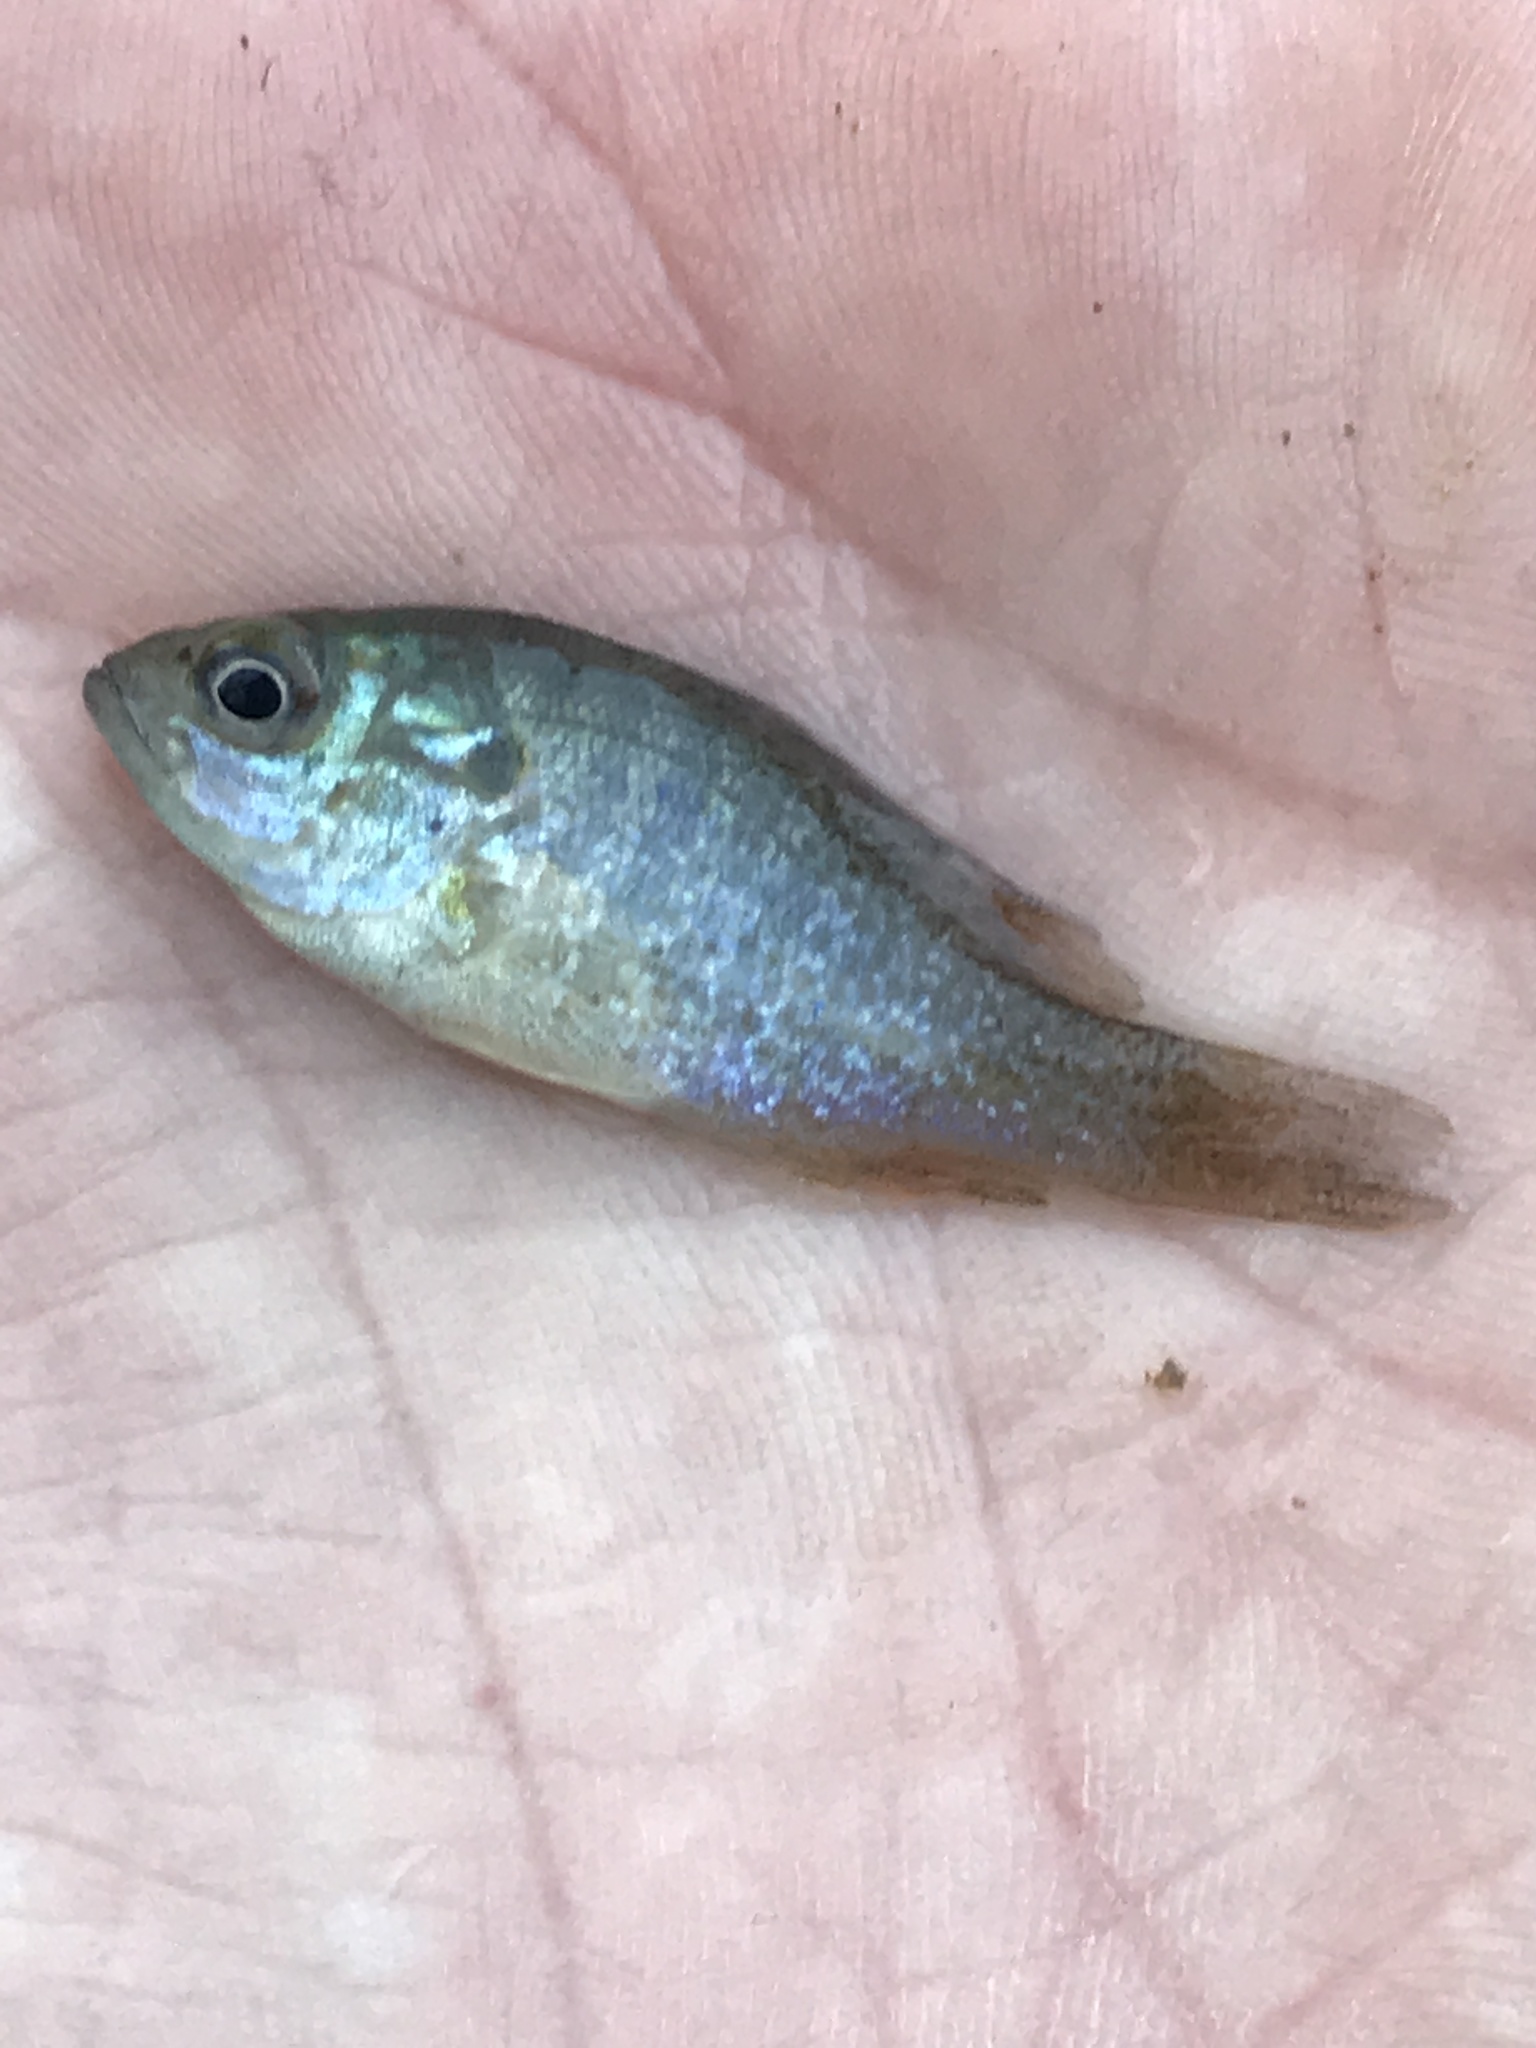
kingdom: Animalia
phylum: Chordata
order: Perciformes
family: Centrarchidae
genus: Lepomis
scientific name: Lepomis cyanellus
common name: Green sunfish
